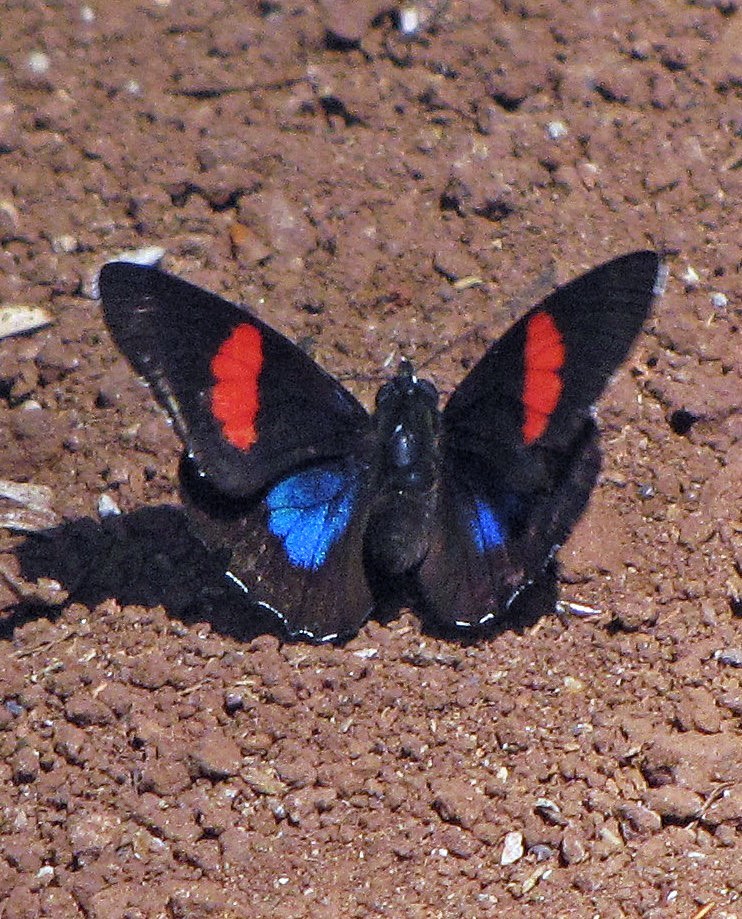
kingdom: Animalia
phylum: Arthropoda
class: Insecta
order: Lepidoptera
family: Nymphalidae
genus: Catagramma
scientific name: Catagramma Callicore hydaspes
